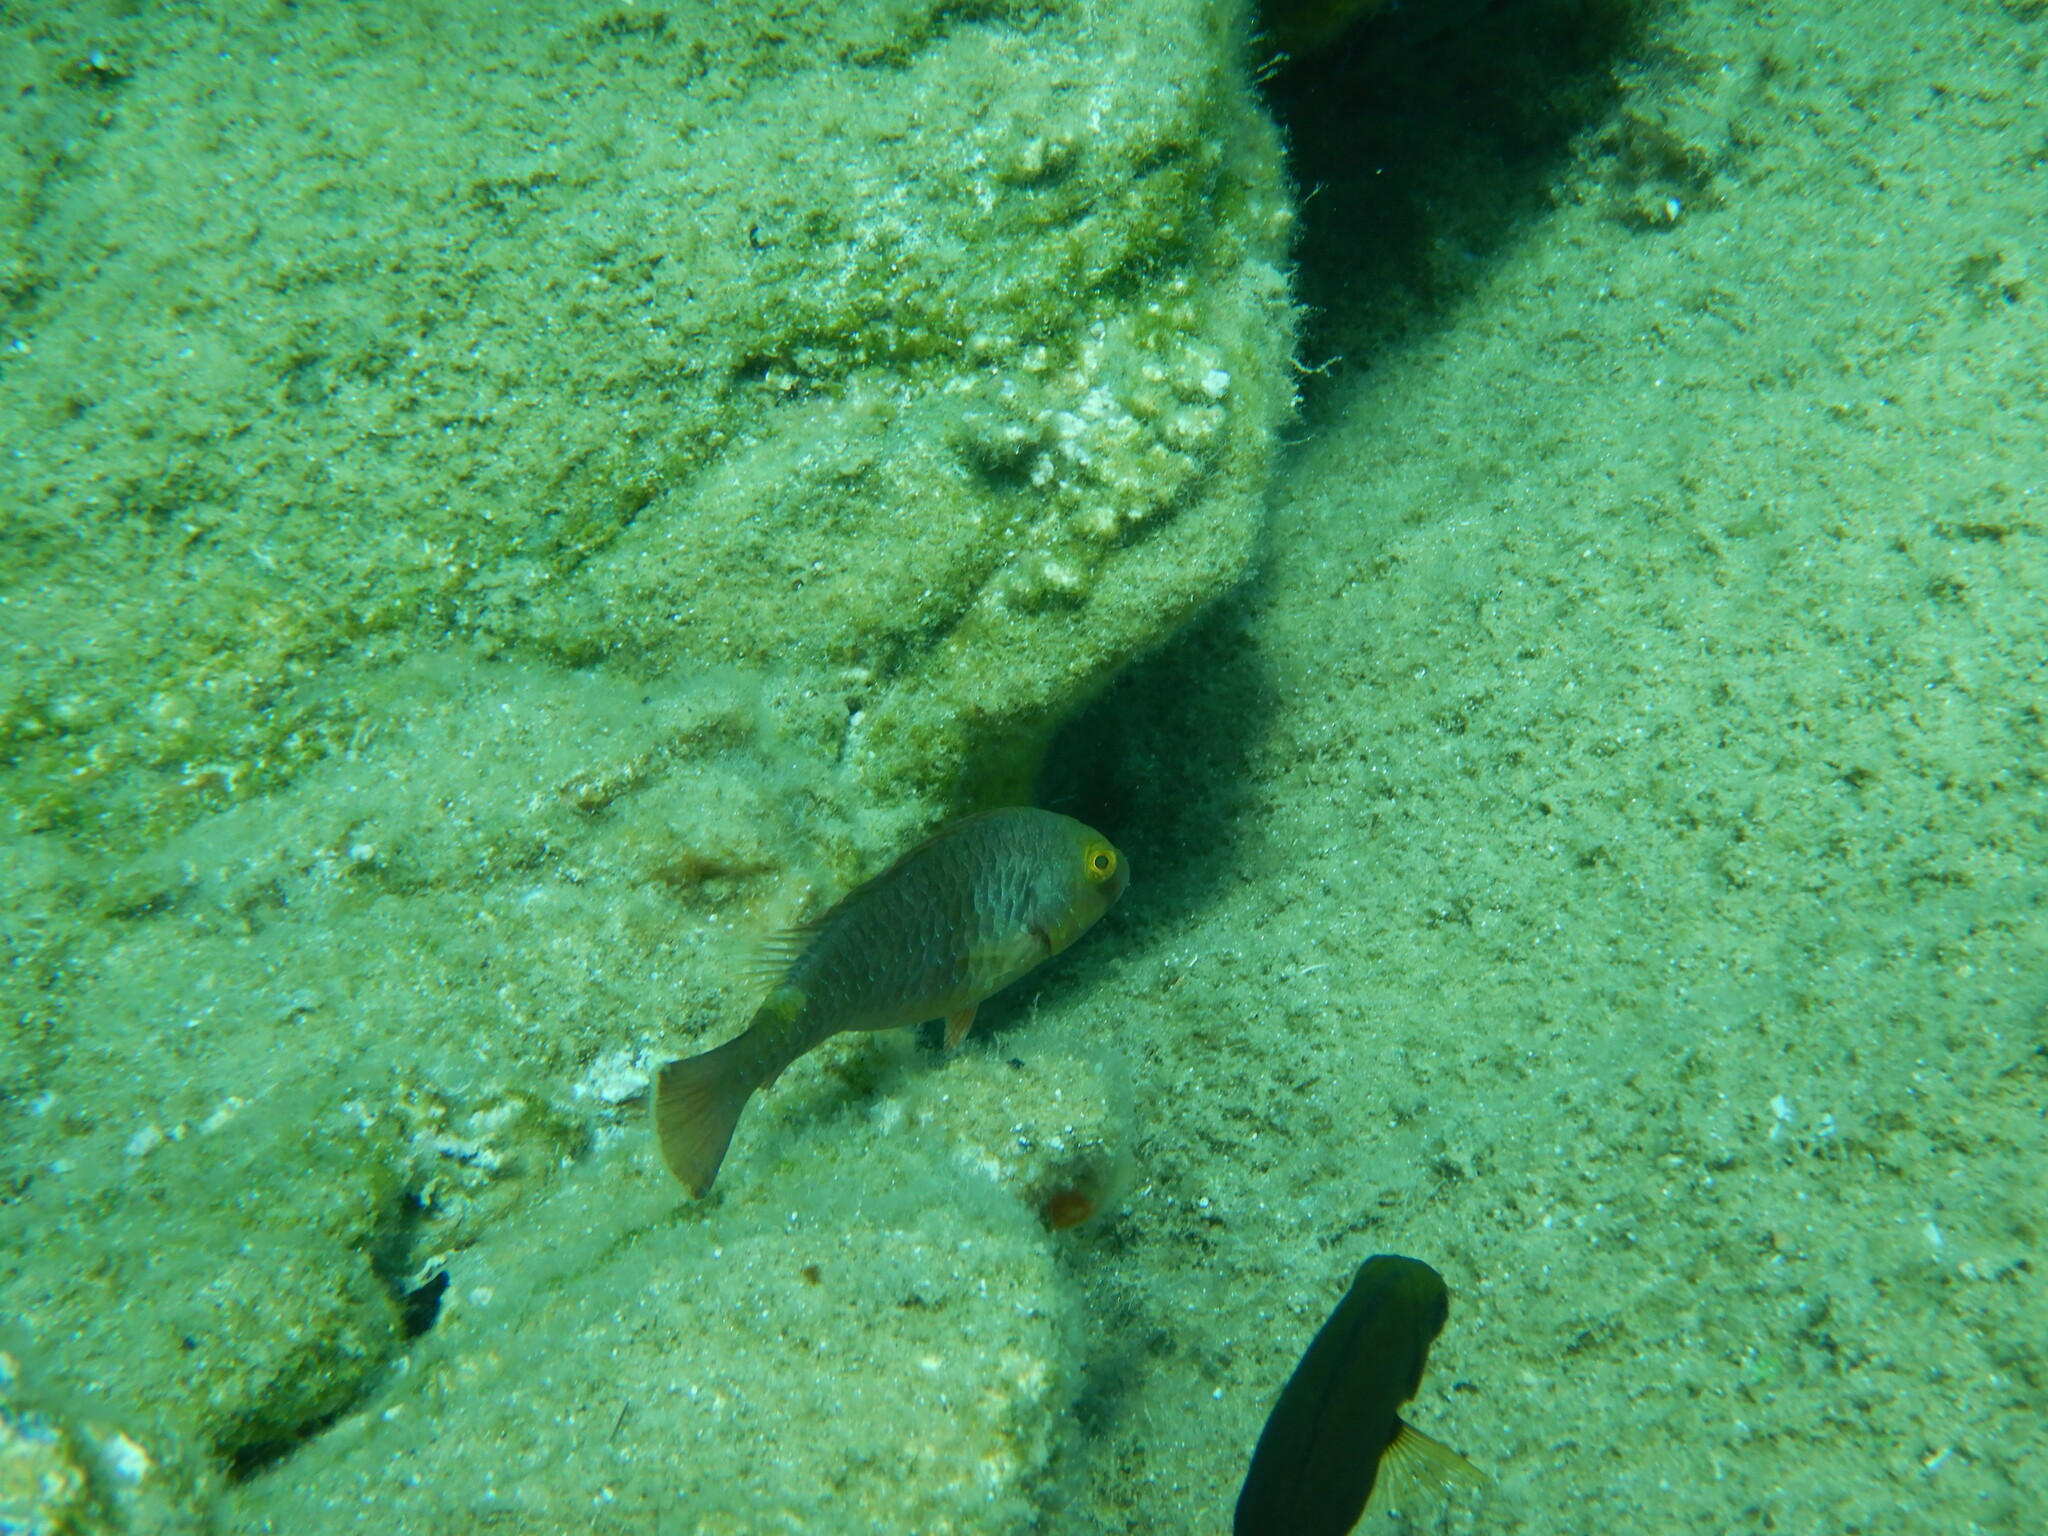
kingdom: Animalia
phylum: Chordata
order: Perciformes
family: Scaridae
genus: Sparisoma
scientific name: Sparisoma cretense
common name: Parrotfish
